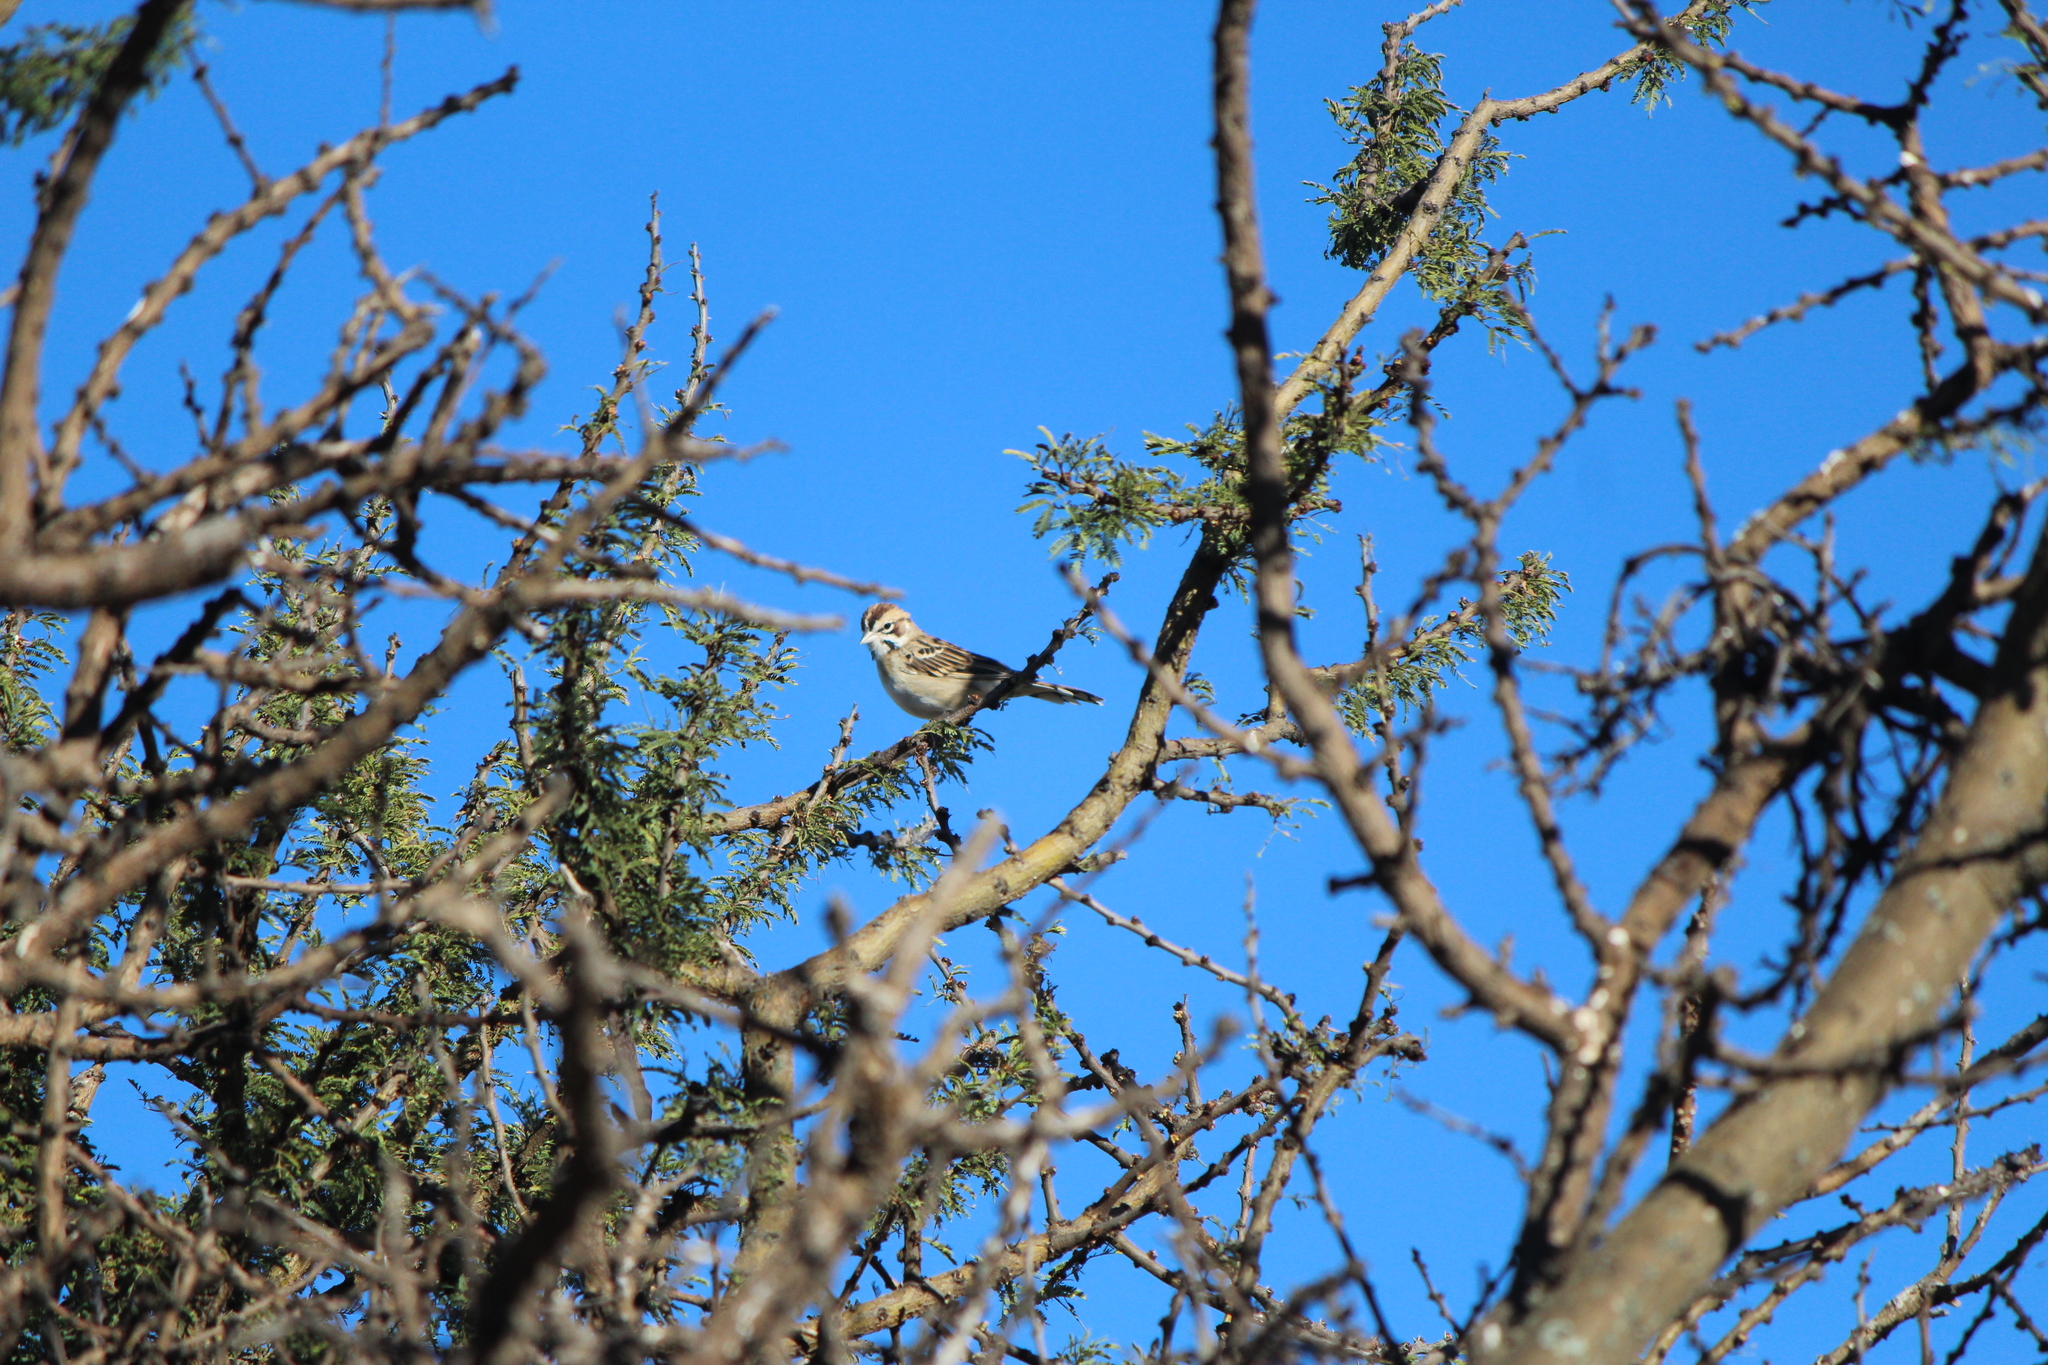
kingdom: Animalia
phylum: Chordata
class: Aves
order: Passeriformes
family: Passerellidae
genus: Chondestes
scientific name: Chondestes grammacus
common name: Lark sparrow
